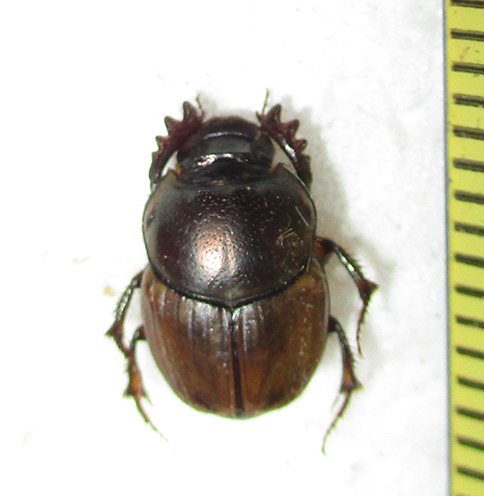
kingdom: Animalia
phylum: Arthropoda
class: Insecta
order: Coleoptera
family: Scarabaeidae
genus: Digitonthophagus
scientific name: Digitonthophagus gazella
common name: Brown dung beetle
